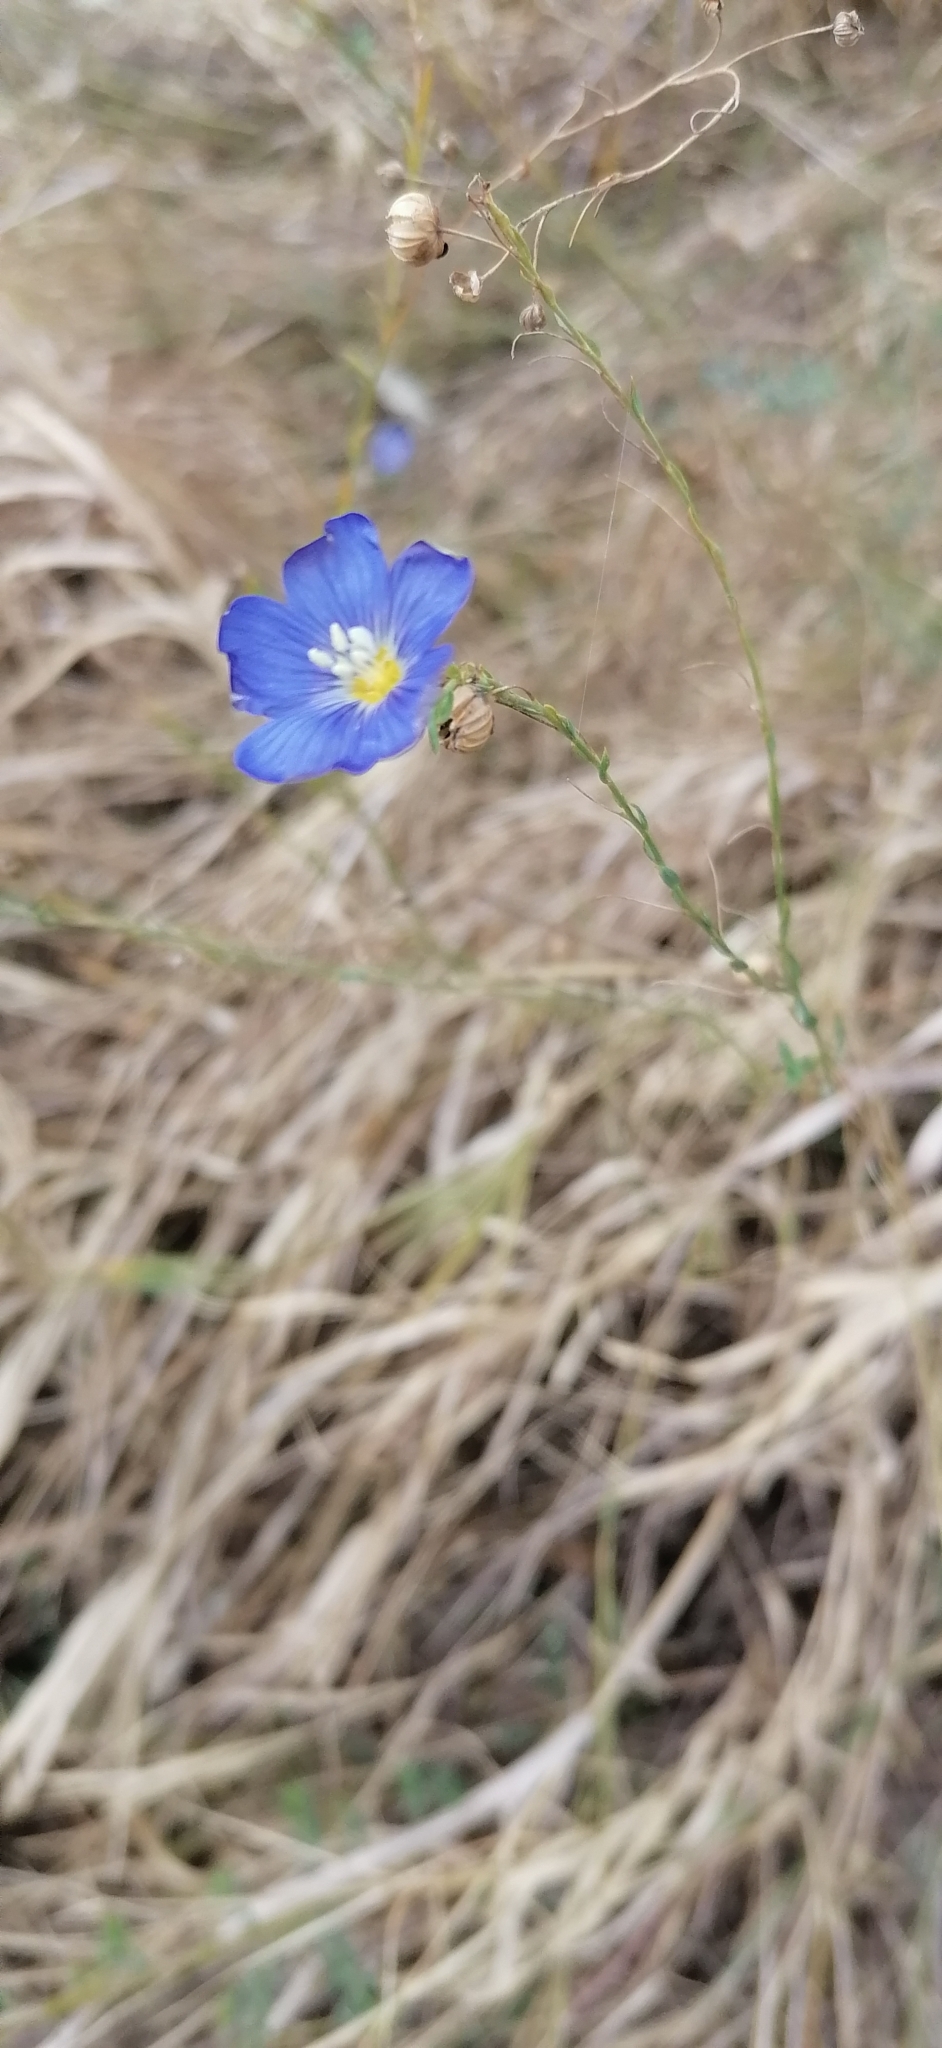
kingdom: Plantae
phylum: Tracheophyta
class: Magnoliopsida
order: Malpighiales
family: Linaceae
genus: Linum
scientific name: Linum perenne
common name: Blue flax
